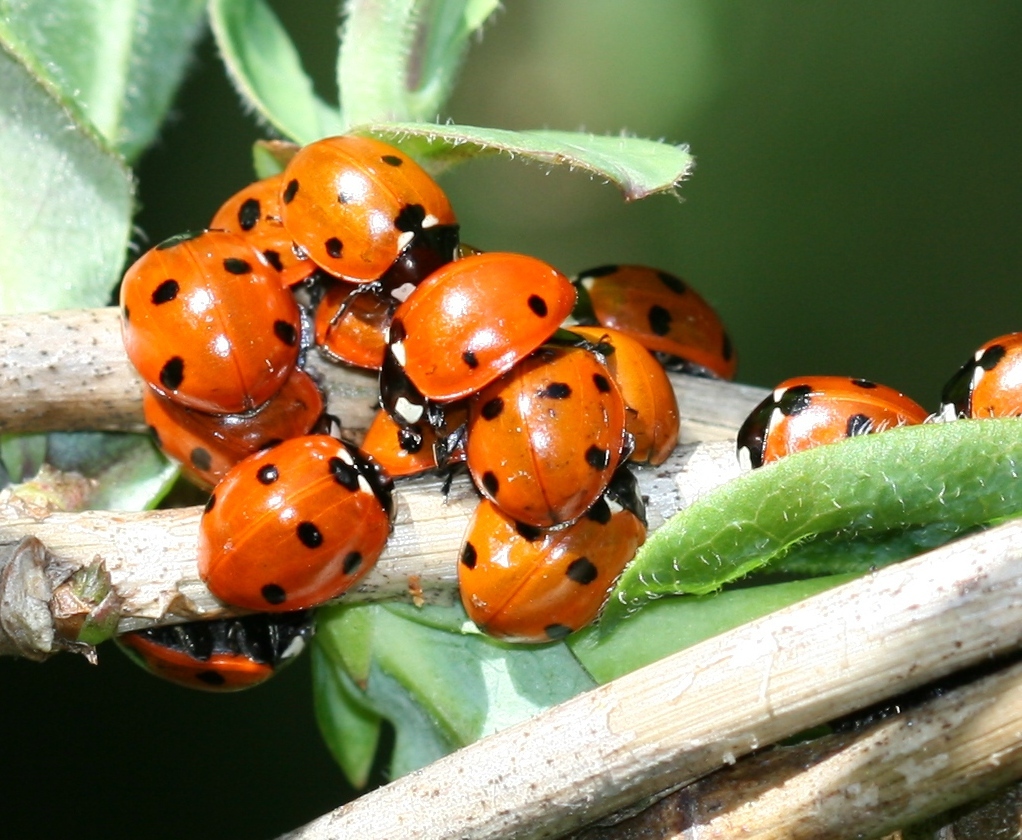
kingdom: Animalia
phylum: Arthropoda
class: Insecta
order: Coleoptera
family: Coccinellidae
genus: Coccinella
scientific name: Coccinella septempunctata
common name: Sevenspotted lady beetle
